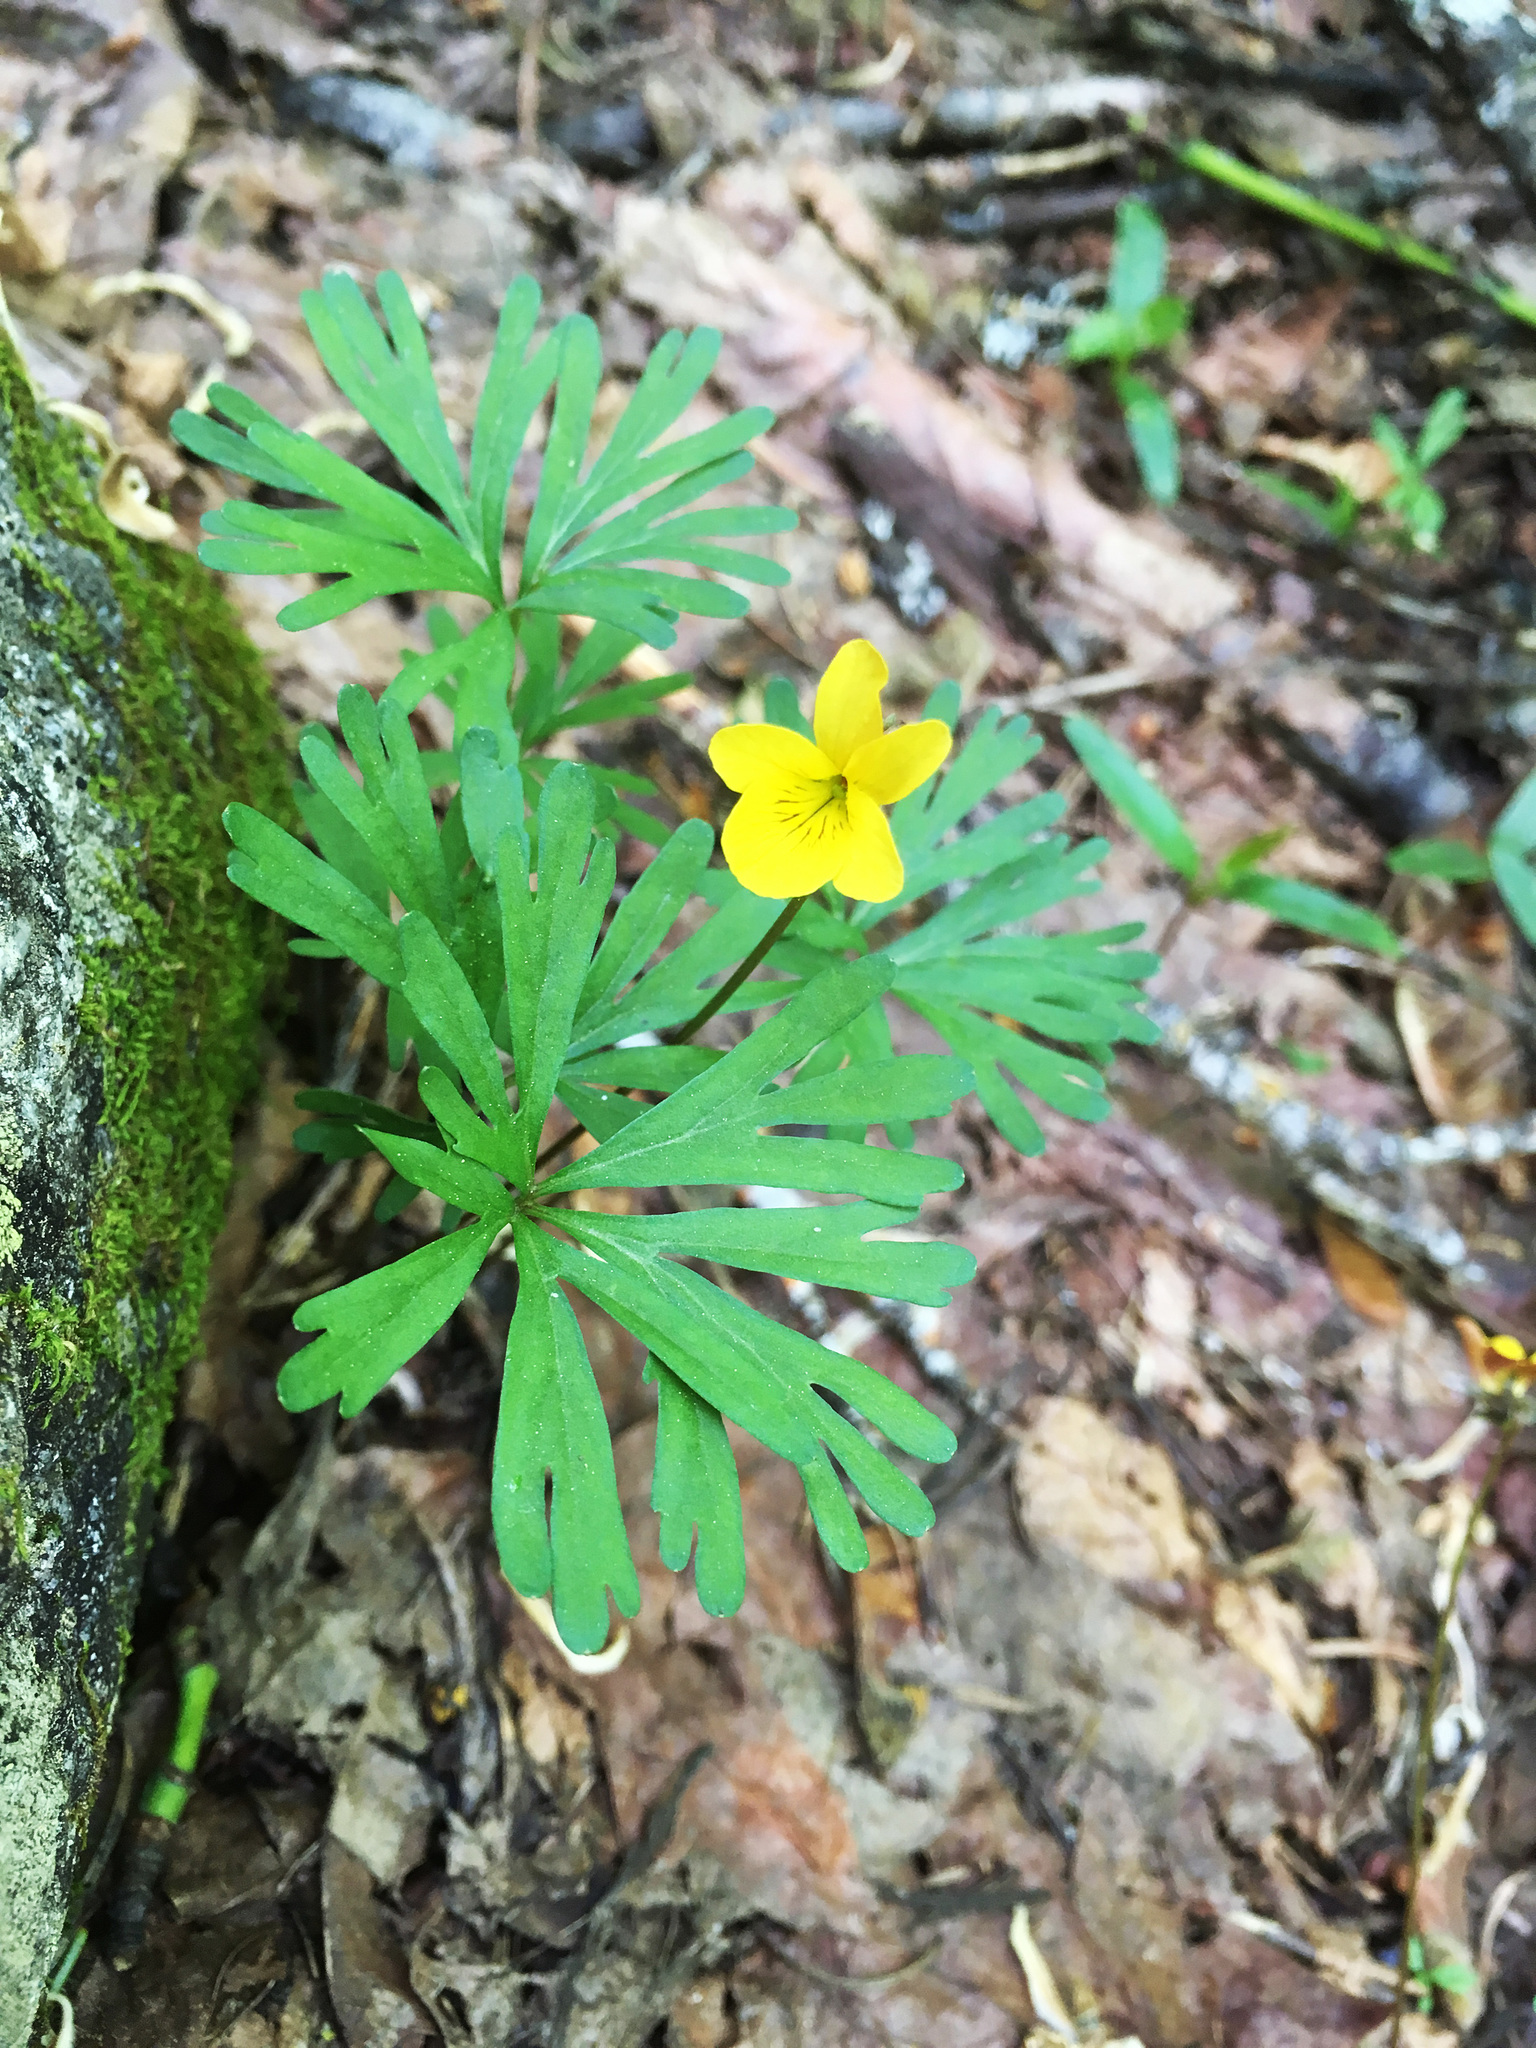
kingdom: Plantae
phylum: Tracheophyta
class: Magnoliopsida
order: Malpighiales
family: Violaceae
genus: Viola
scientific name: Viola sheltonii
